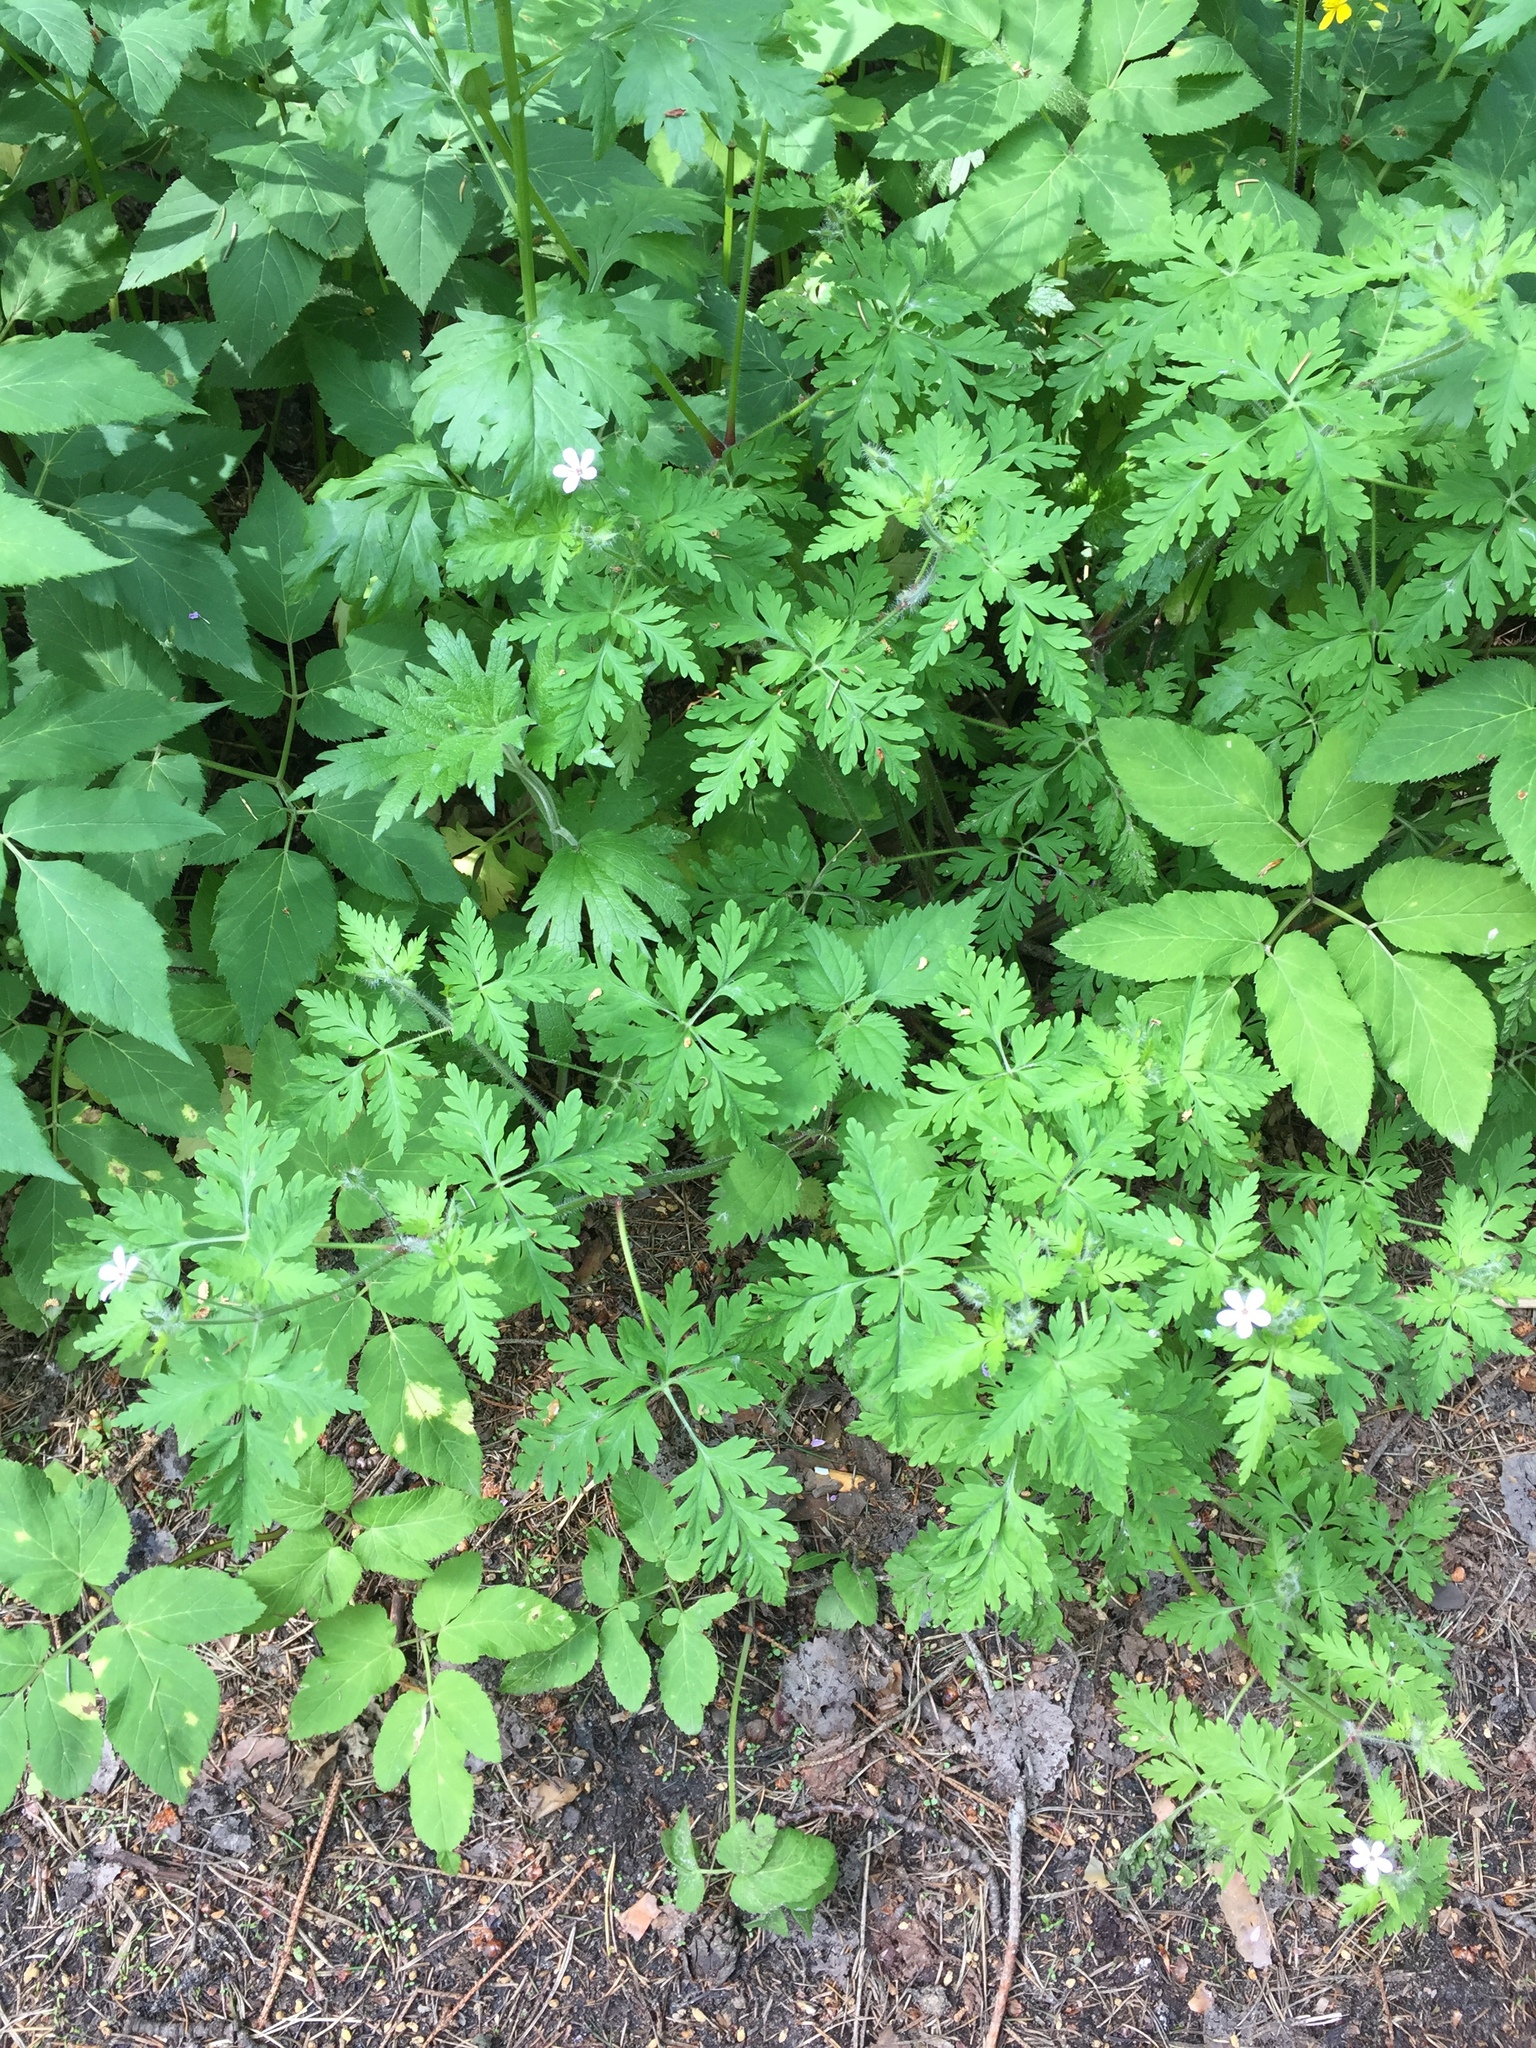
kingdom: Plantae
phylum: Tracheophyta
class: Magnoliopsida
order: Geraniales
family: Geraniaceae
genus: Geranium
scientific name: Geranium robertianum
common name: Herb-robert
